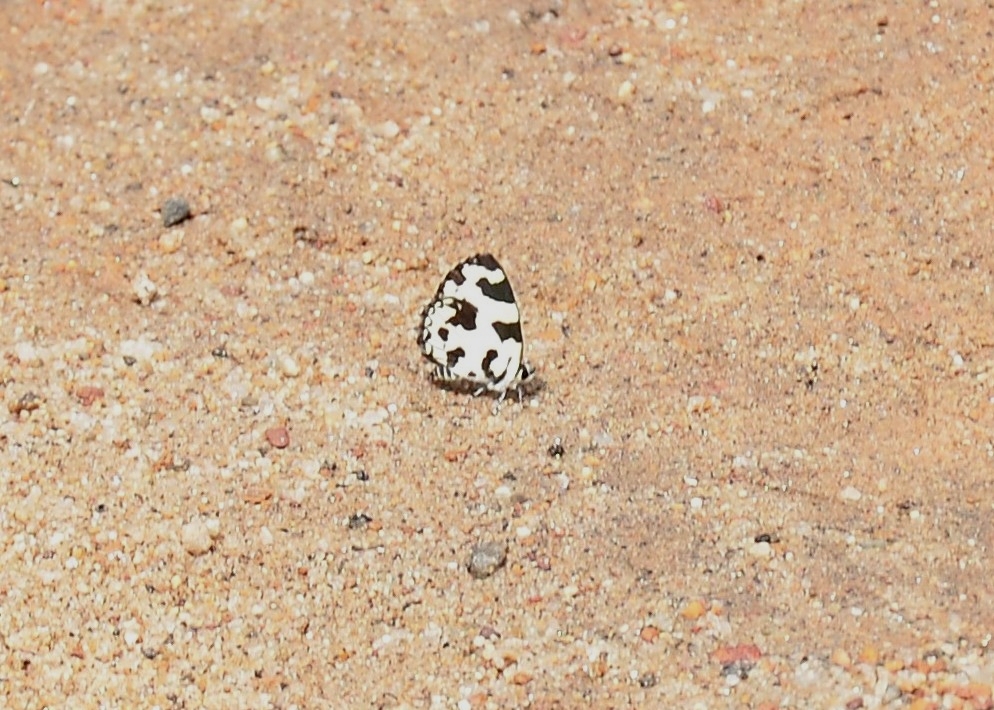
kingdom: Animalia
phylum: Arthropoda
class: Insecta
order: Lepidoptera
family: Lycaenidae
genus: Caleta
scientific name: Caleta decidia
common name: Angled pierrot
